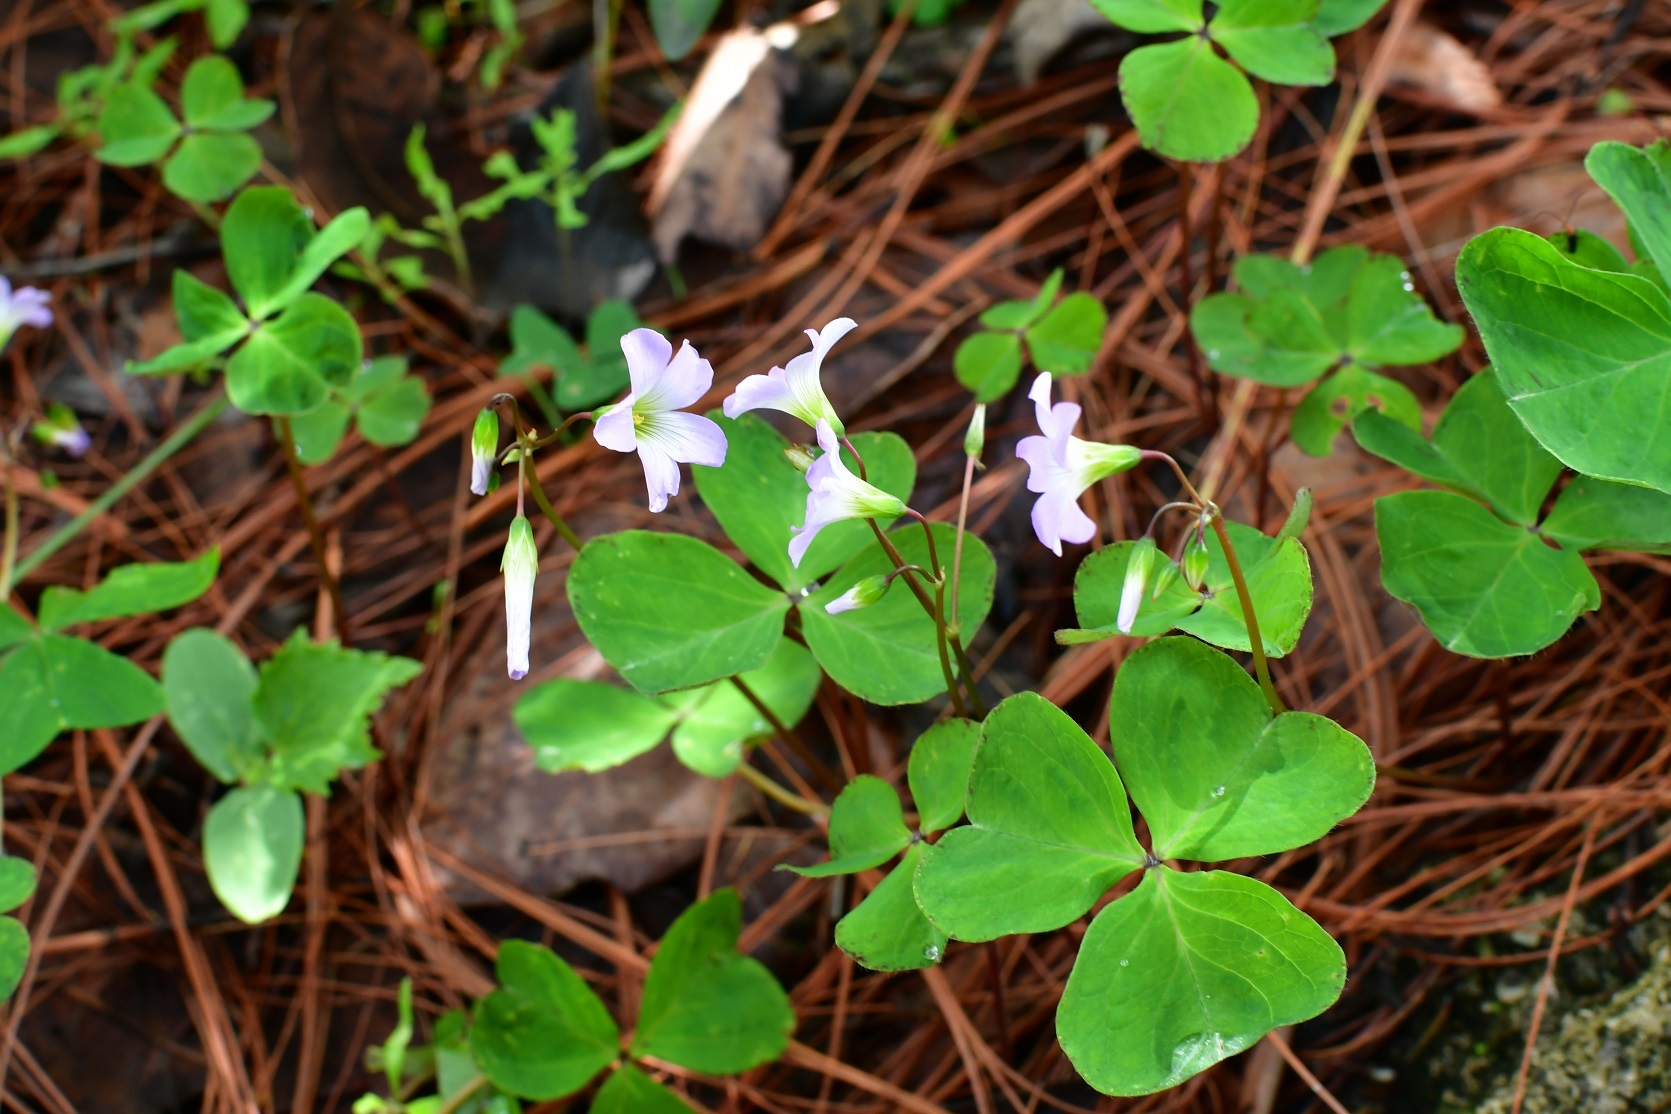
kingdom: Plantae
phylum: Tracheophyta
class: Magnoliopsida
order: Oxalidales
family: Oxalidaceae
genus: Oxalis
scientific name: Oxalis latifolia
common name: Garden pink-sorrel
